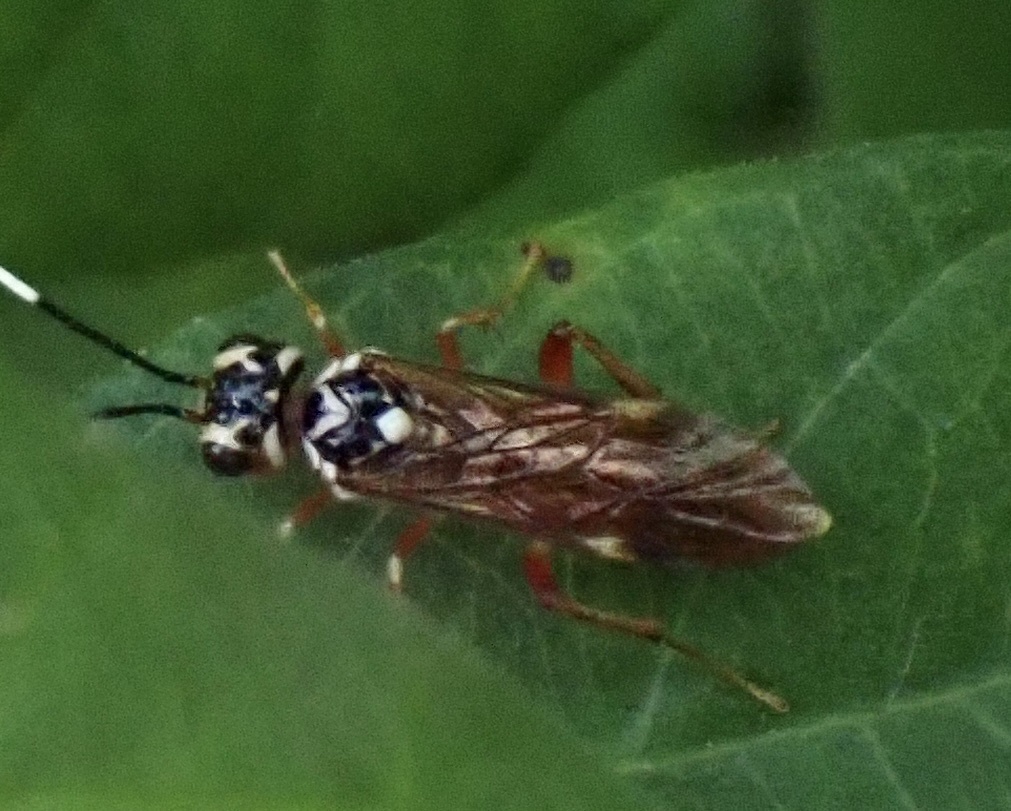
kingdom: Animalia
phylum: Arthropoda
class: Insecta
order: Hymenoptera
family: Tenthredinidae
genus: Taxonus
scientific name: Taxonus pallidicornis
